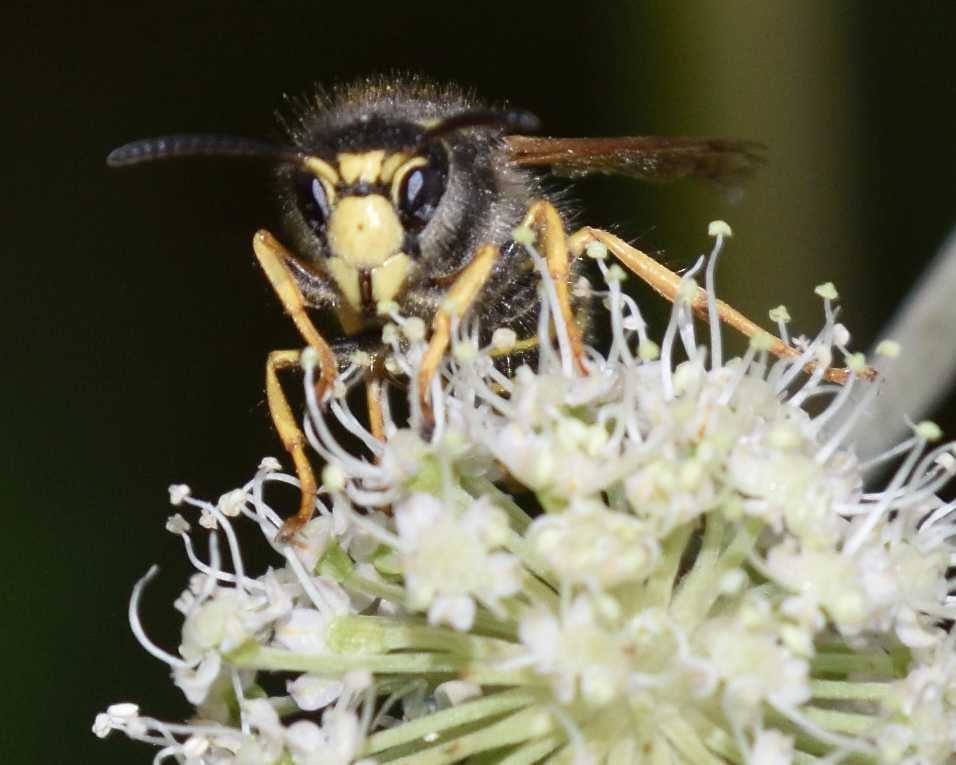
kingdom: Animalia
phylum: Arthropoda
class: Insecta
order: Hymenoptera
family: Vespidae
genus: Dolichovespula
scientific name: Dolichovespula sylvestris
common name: Tree wasp
